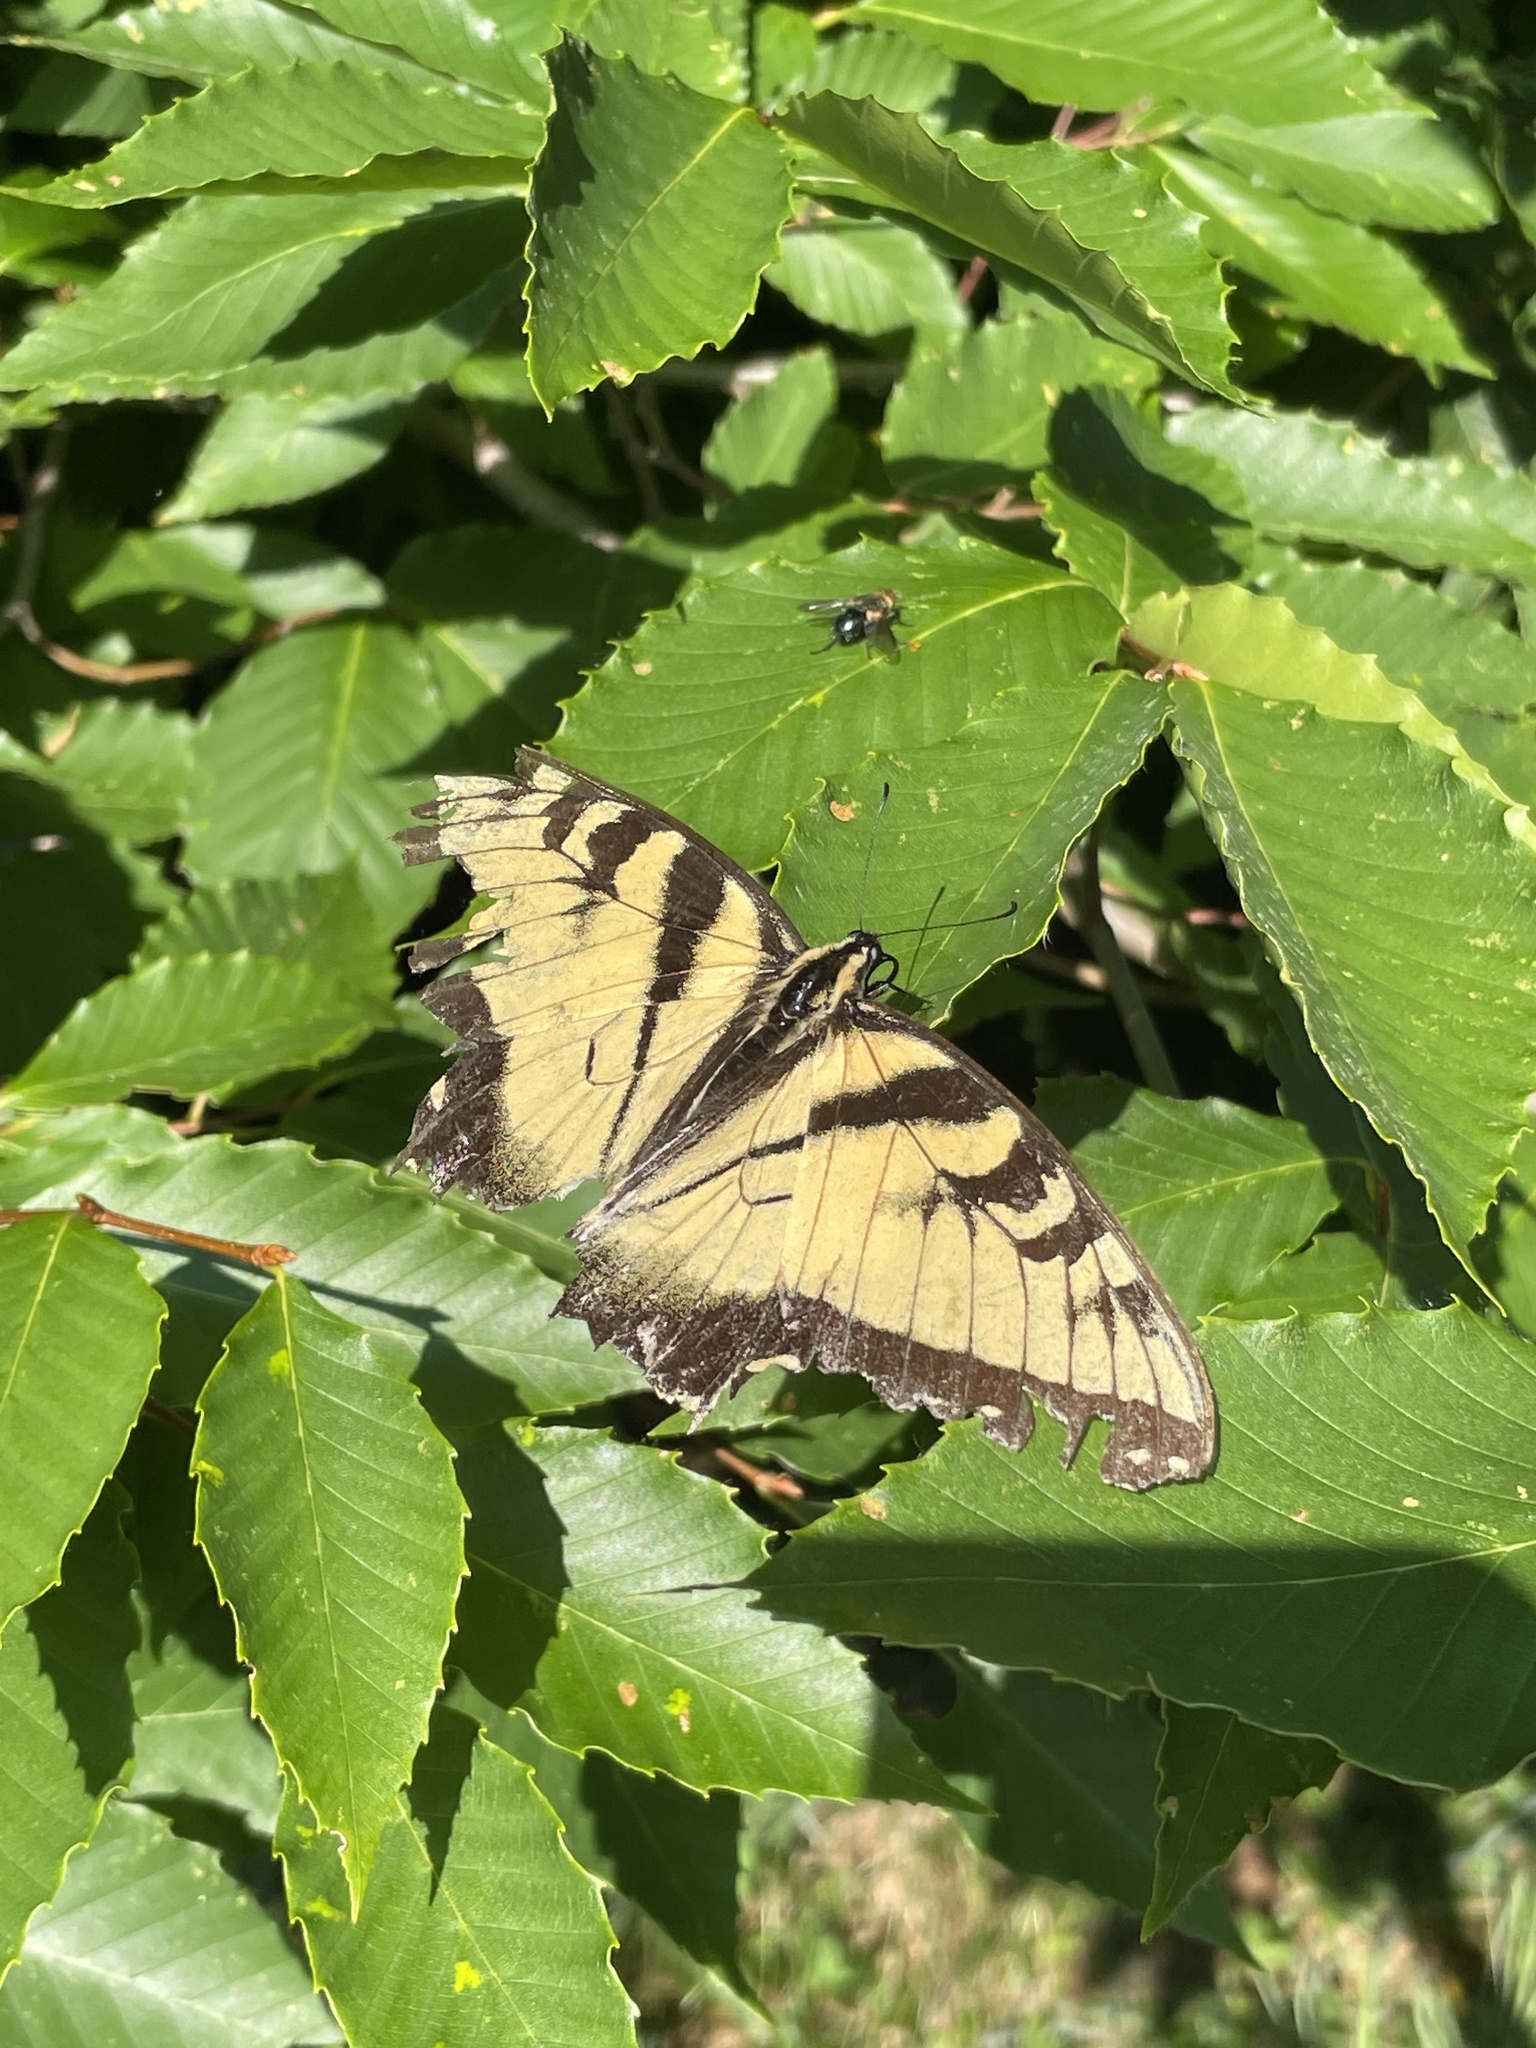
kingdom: Animalia
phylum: Arthropoda
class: Insecta
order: Lepidoptera
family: Papilionidae
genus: Papilio
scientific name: Papilio glaucus
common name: Tiger swallowtail
